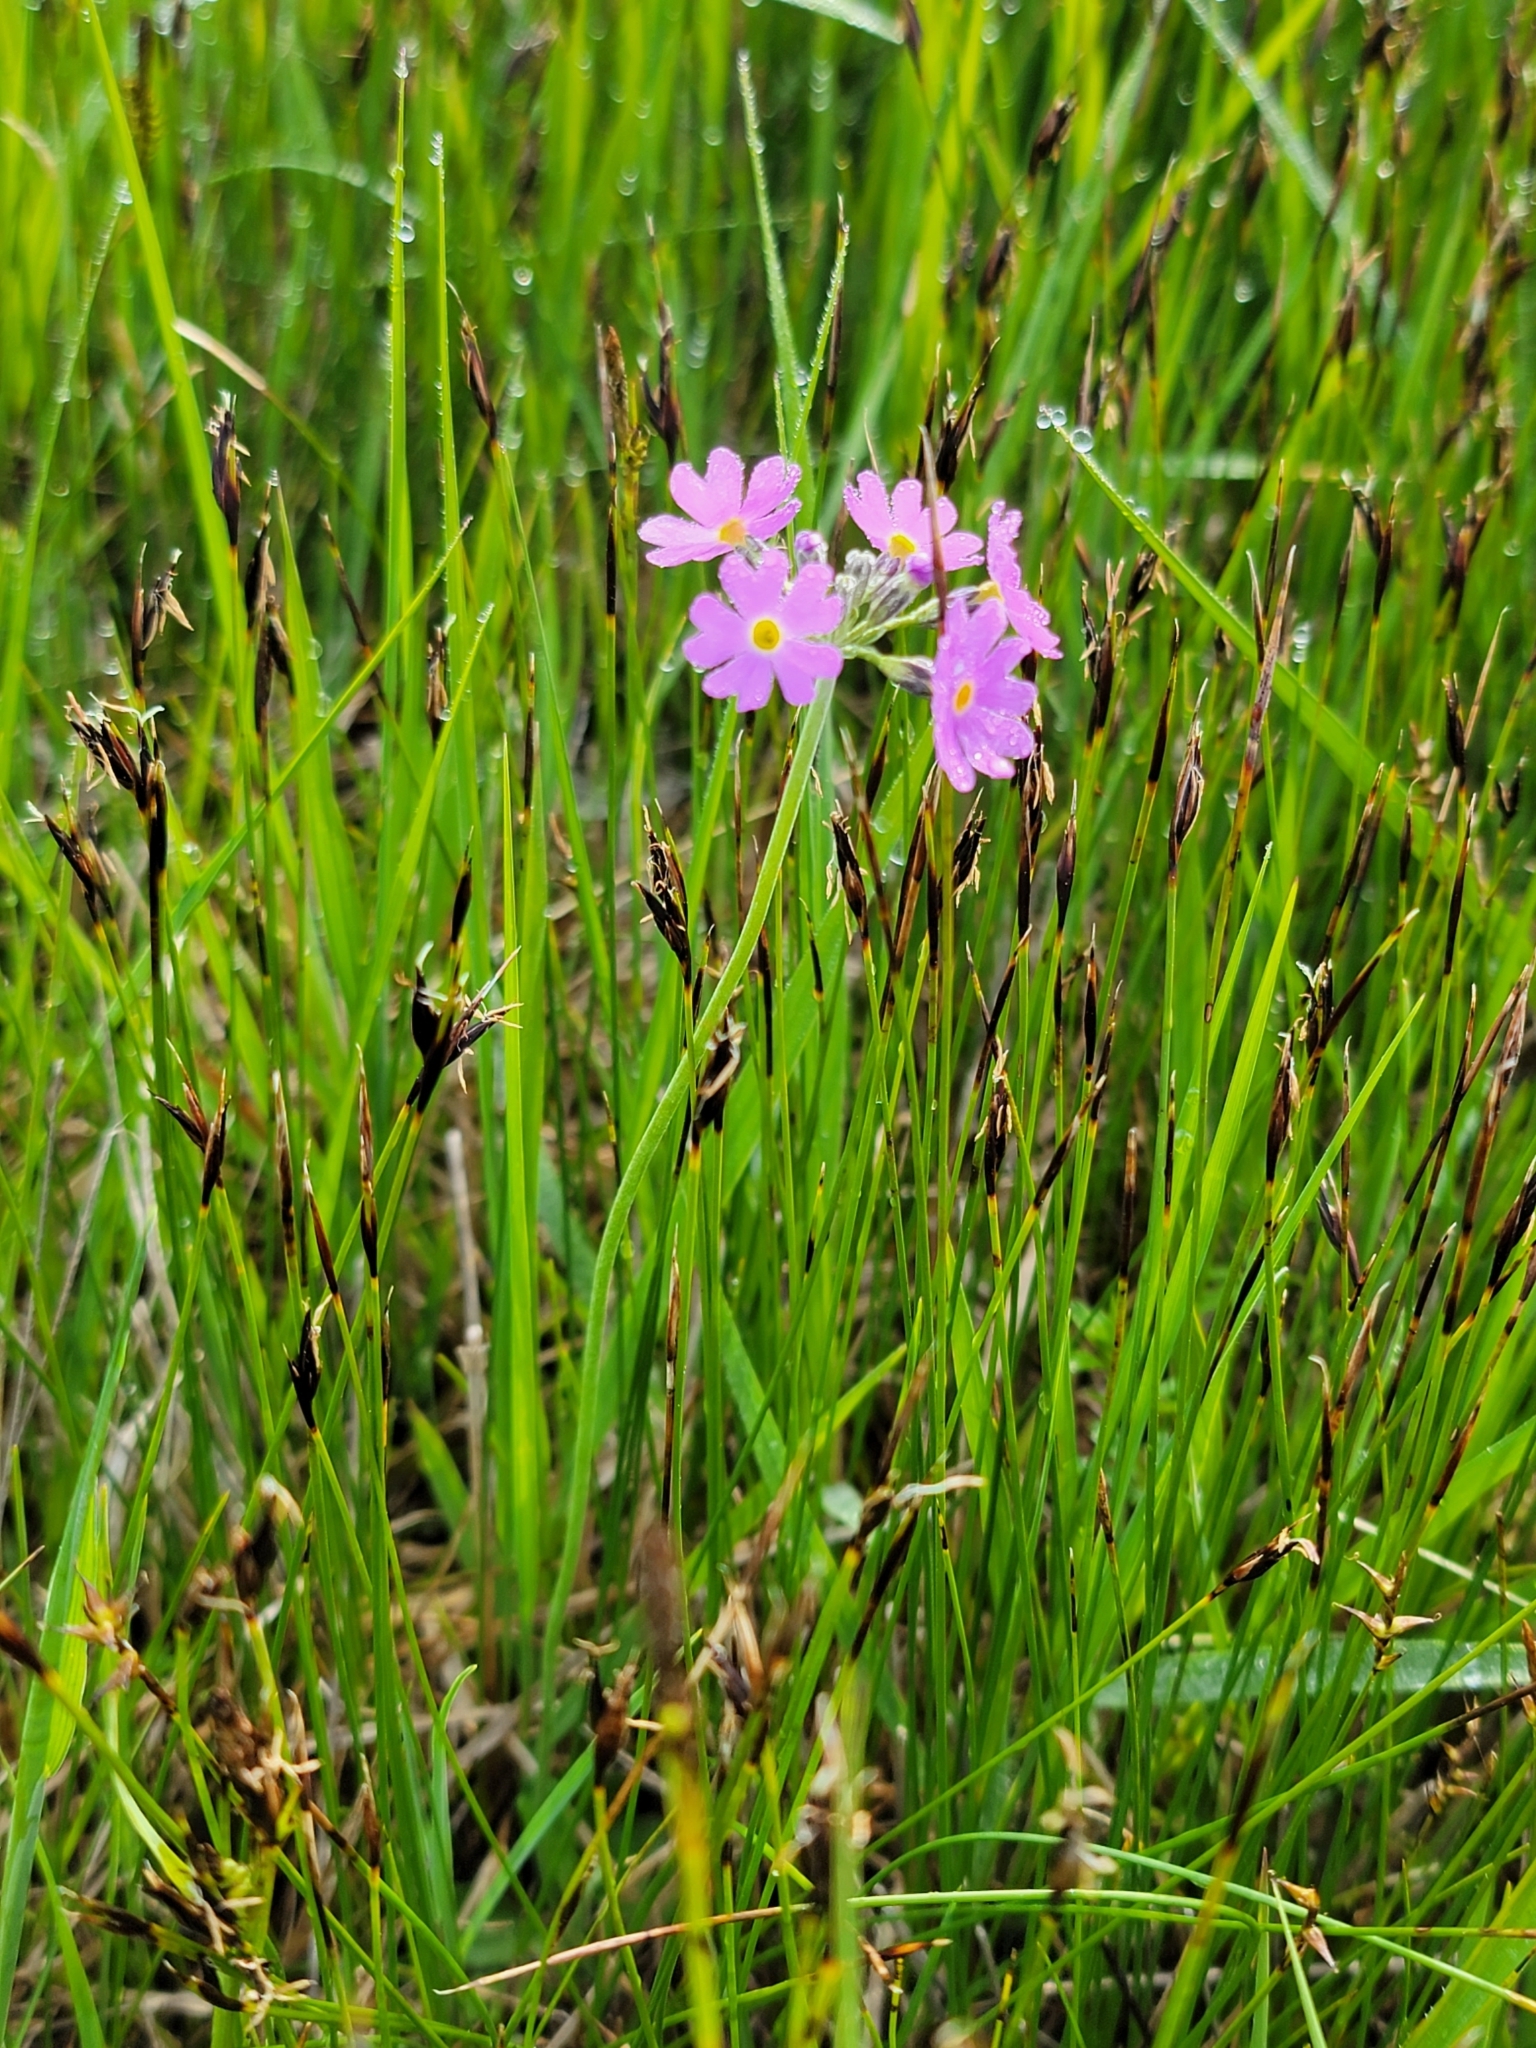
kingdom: Plantae
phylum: Tracheophyta
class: Magnoliopsida
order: Ericales
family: Primulaceae
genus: Primula
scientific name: Primula farinosa
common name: Bird's-eye primrose
